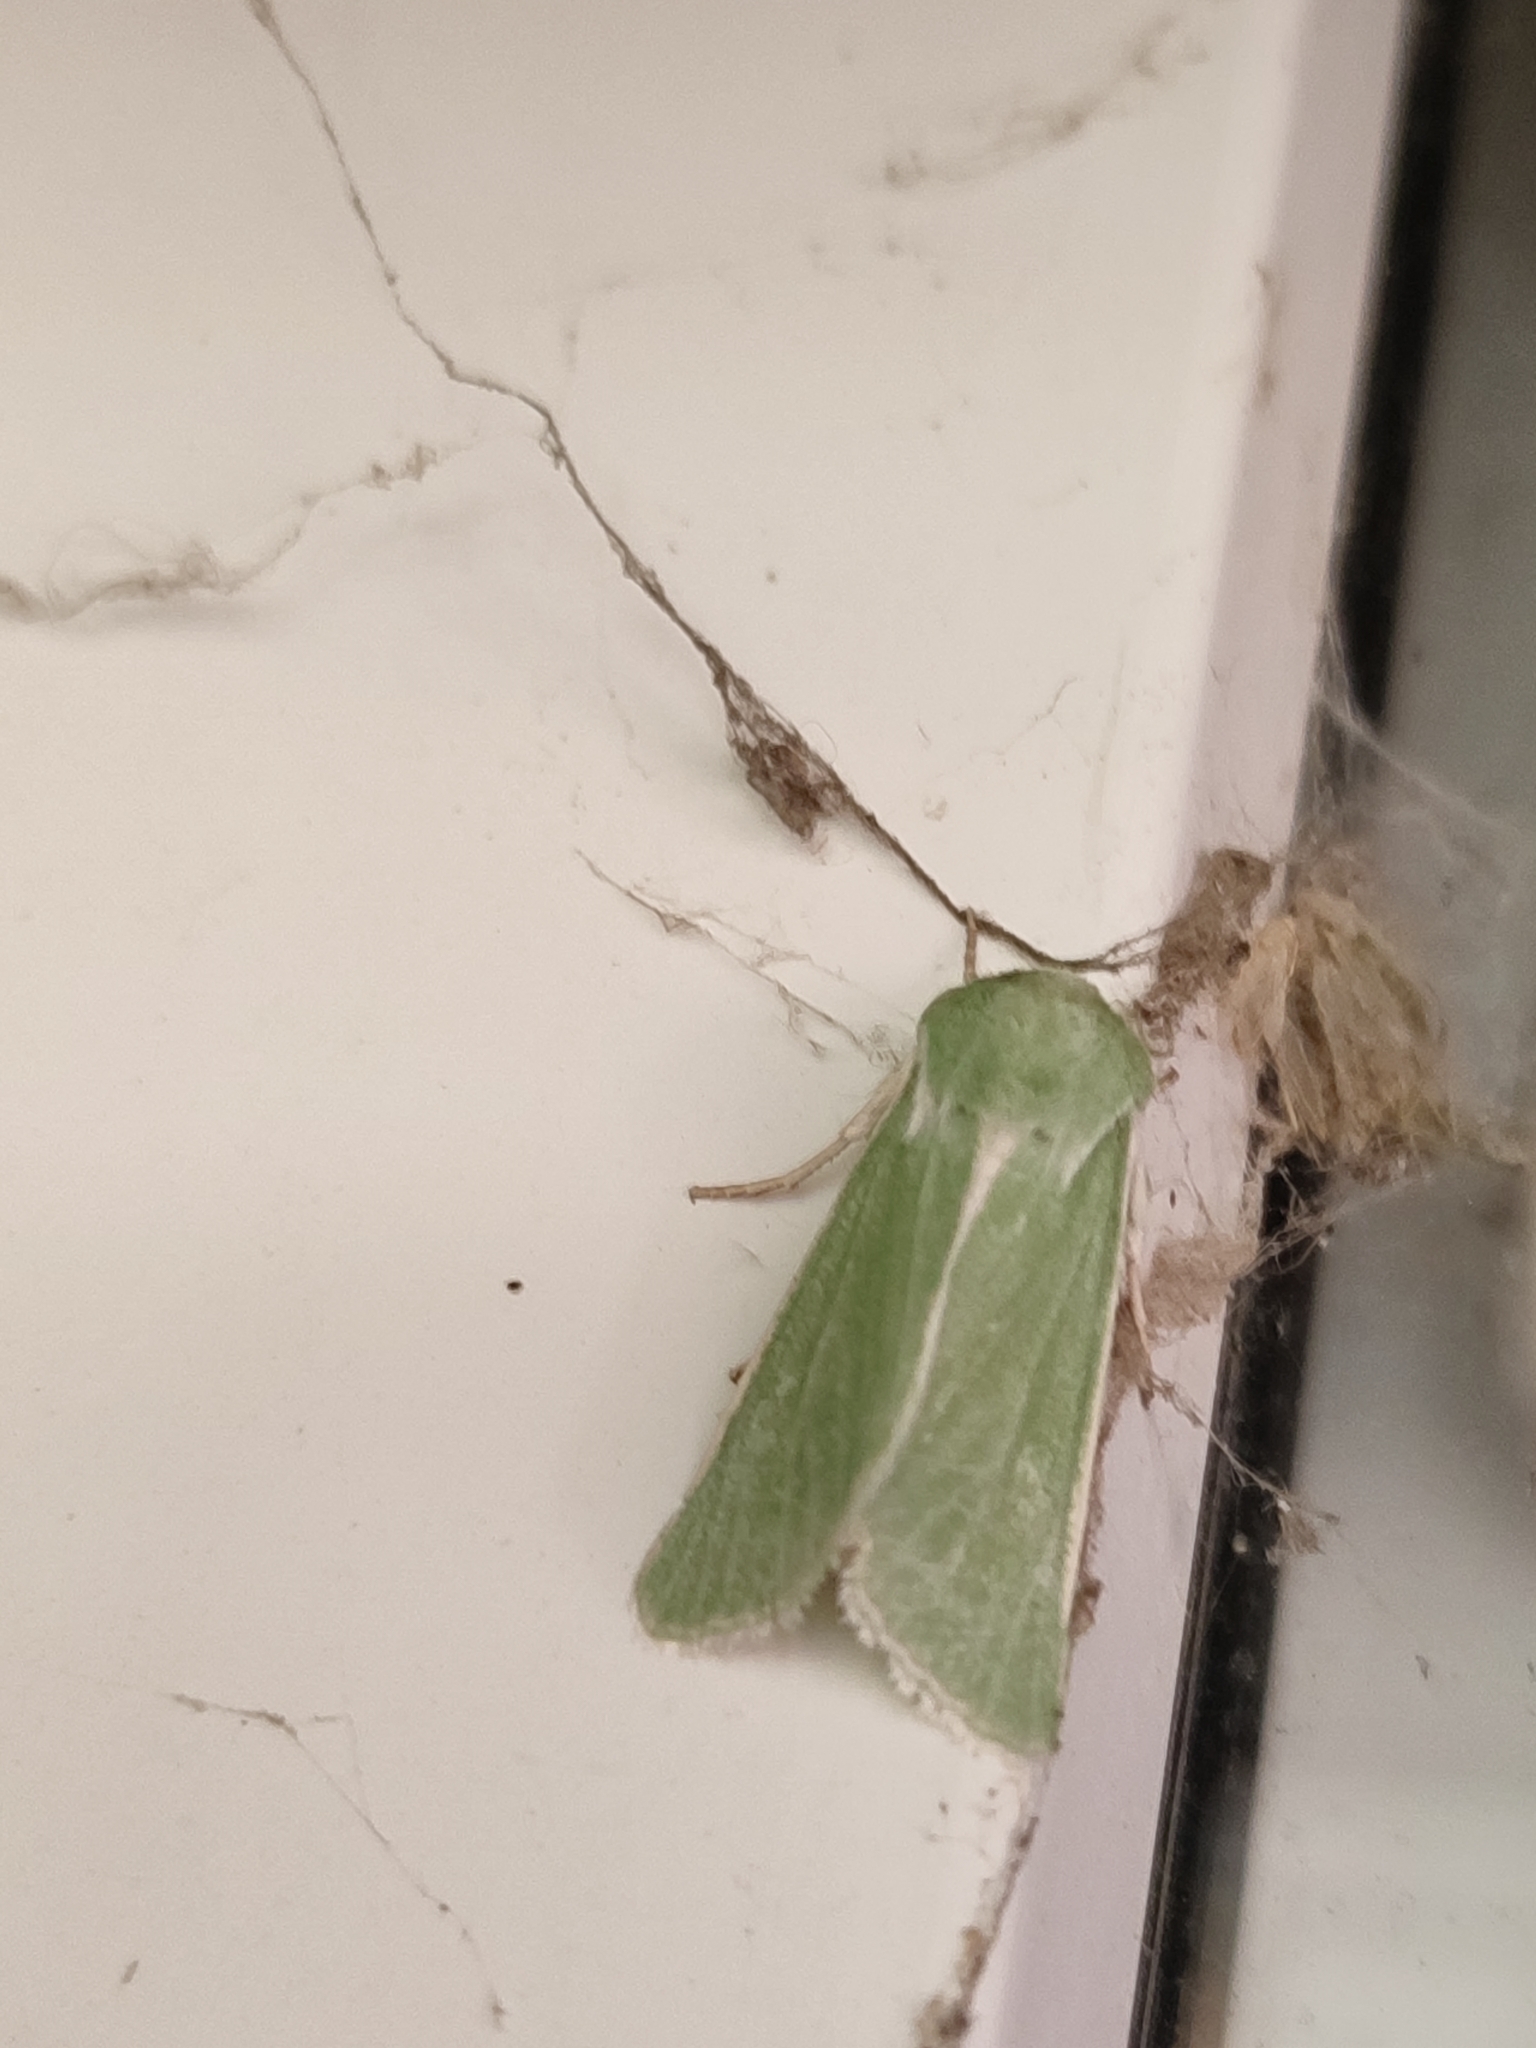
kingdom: Animalia
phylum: Arthropoda
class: Insecta
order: Lepidoptera
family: Noctuidae
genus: Calamia
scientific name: Calamia tridens
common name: Burren green
